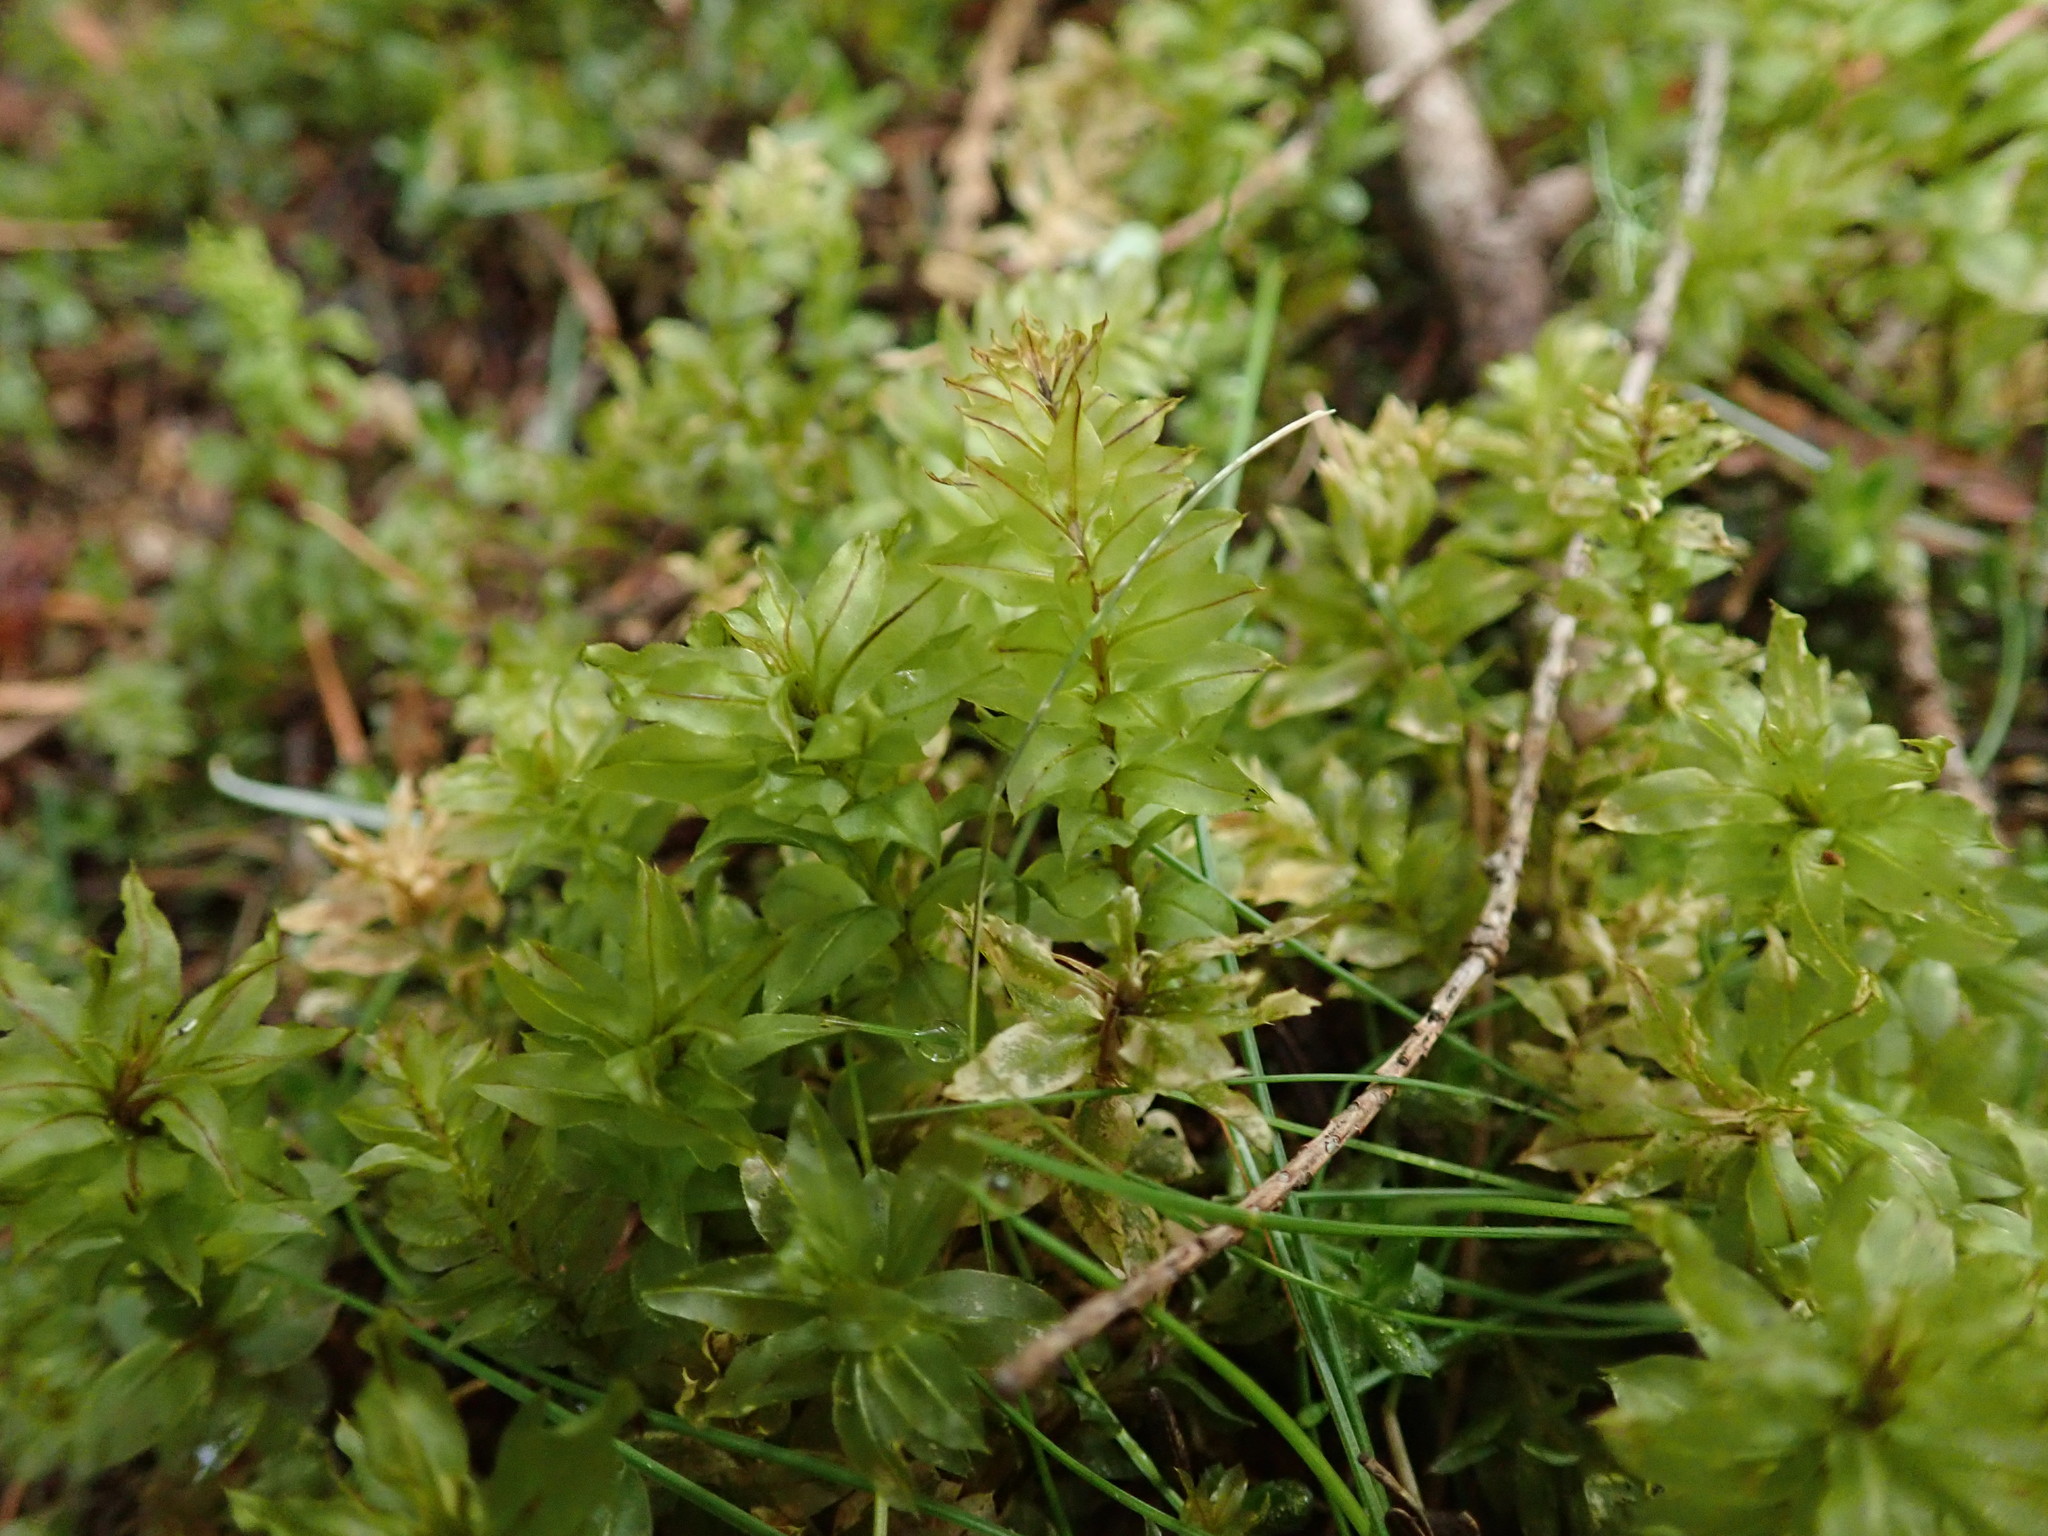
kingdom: Plantae
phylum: Bryophyta
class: Bryopsida
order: Bryales
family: Mniaceae
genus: Plagiomnium
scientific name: Plagiomnium insigne
